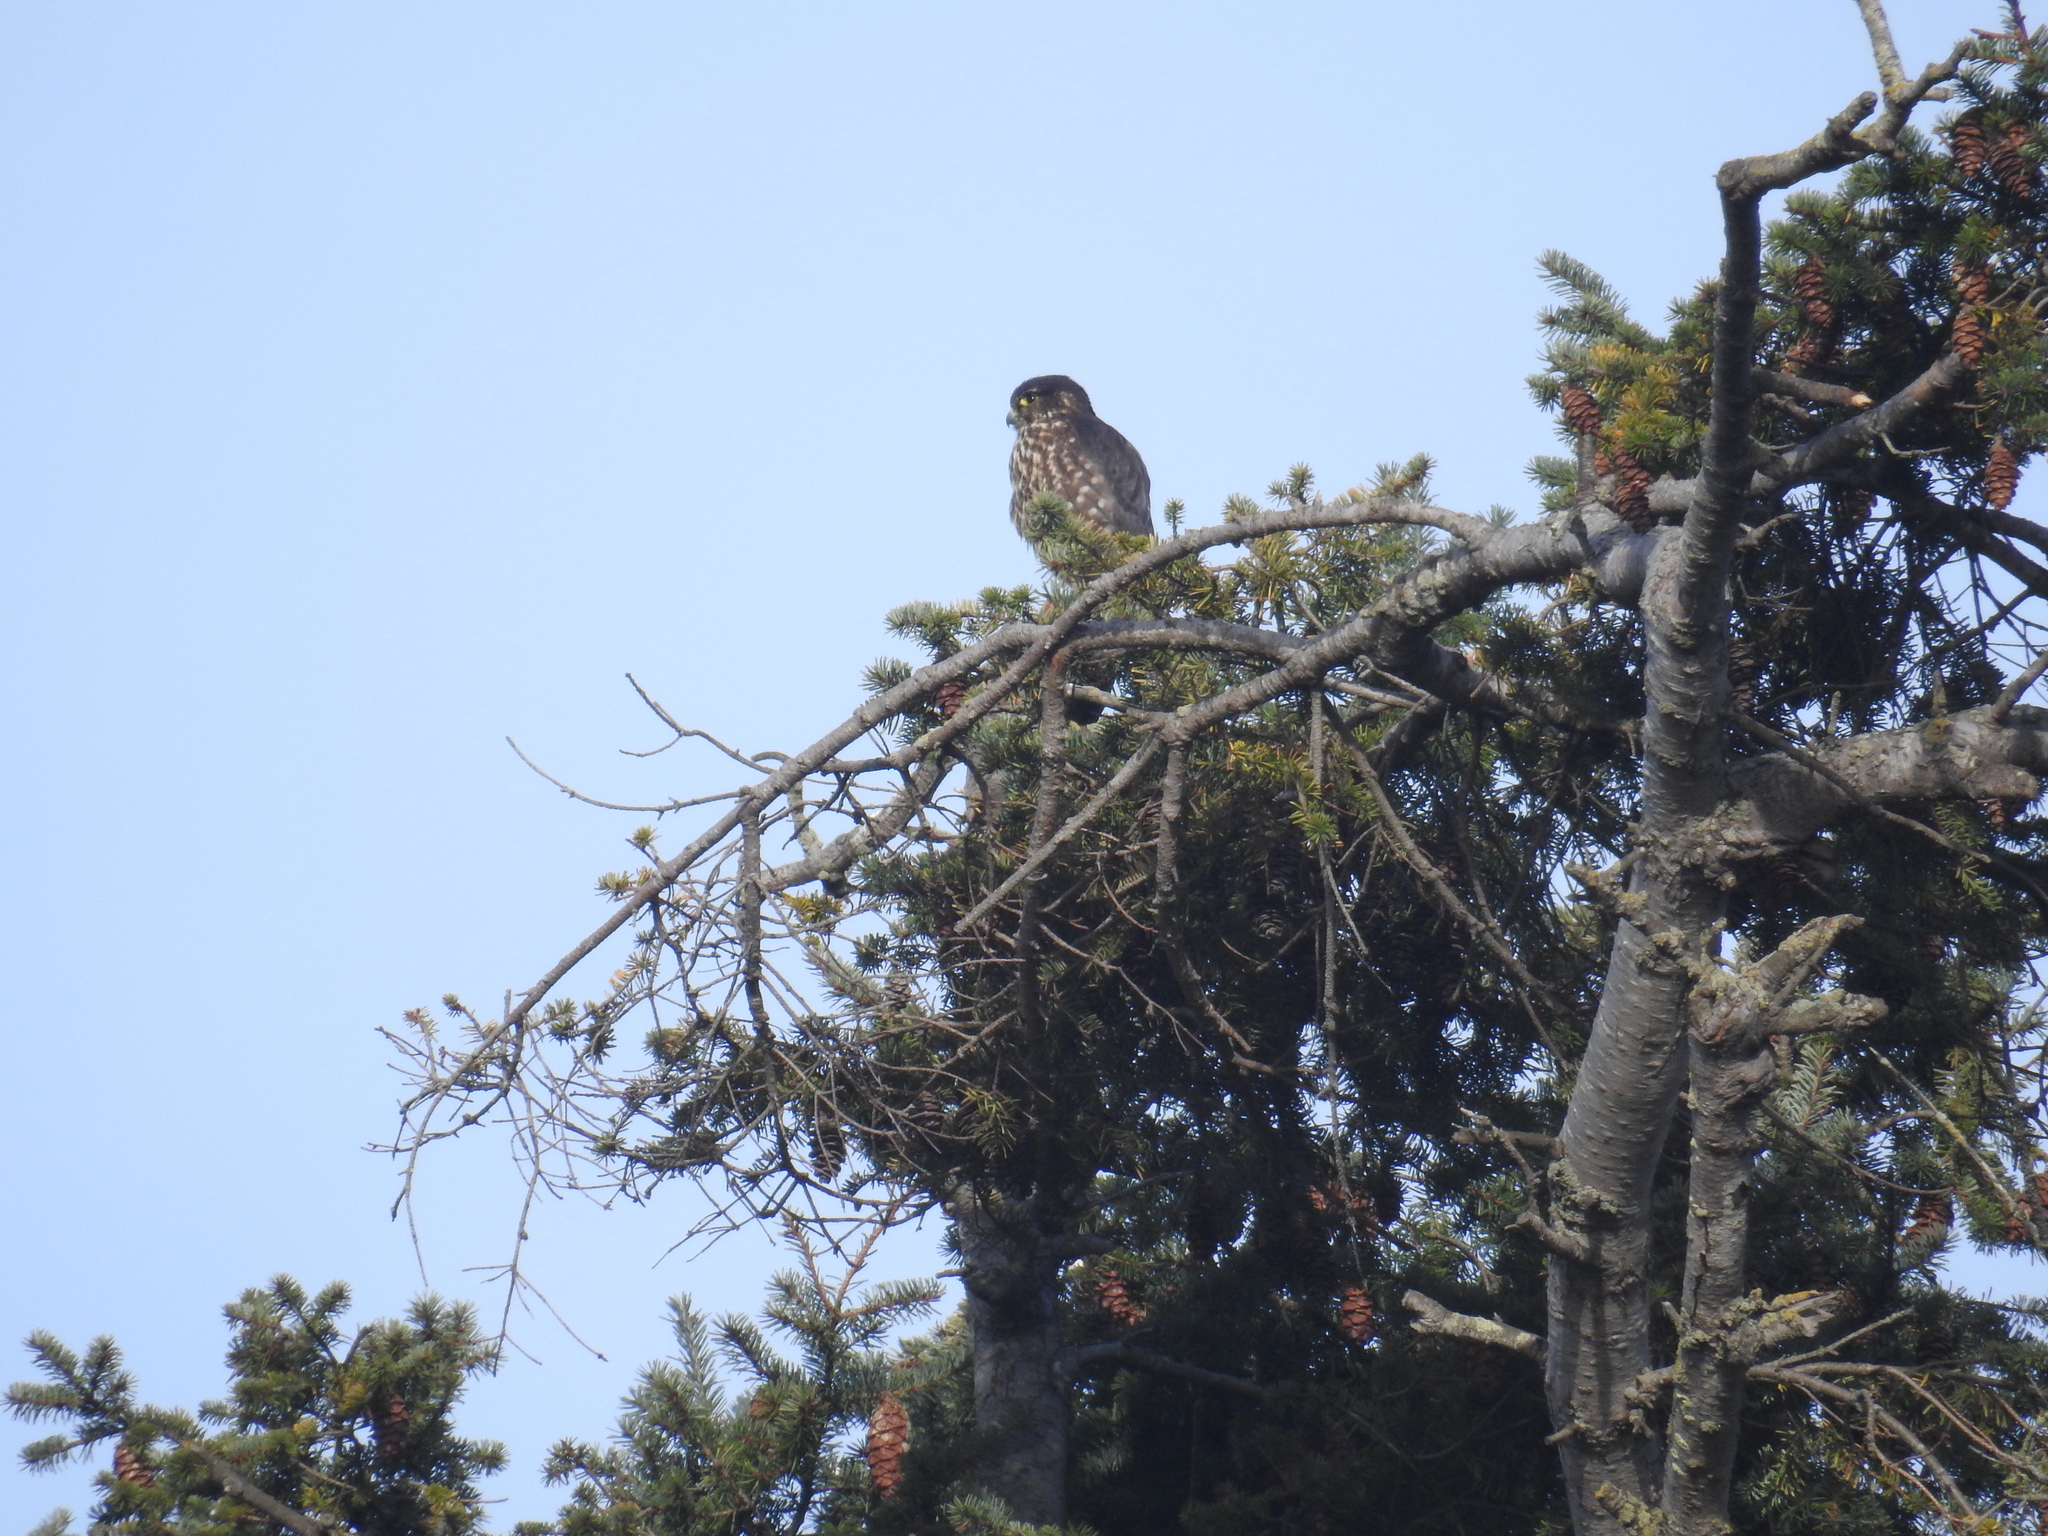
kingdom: Animalia
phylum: Chordata
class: Aves
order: Falconiformes
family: Falconidae
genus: Falco
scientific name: Falco columbarius
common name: Merlin
